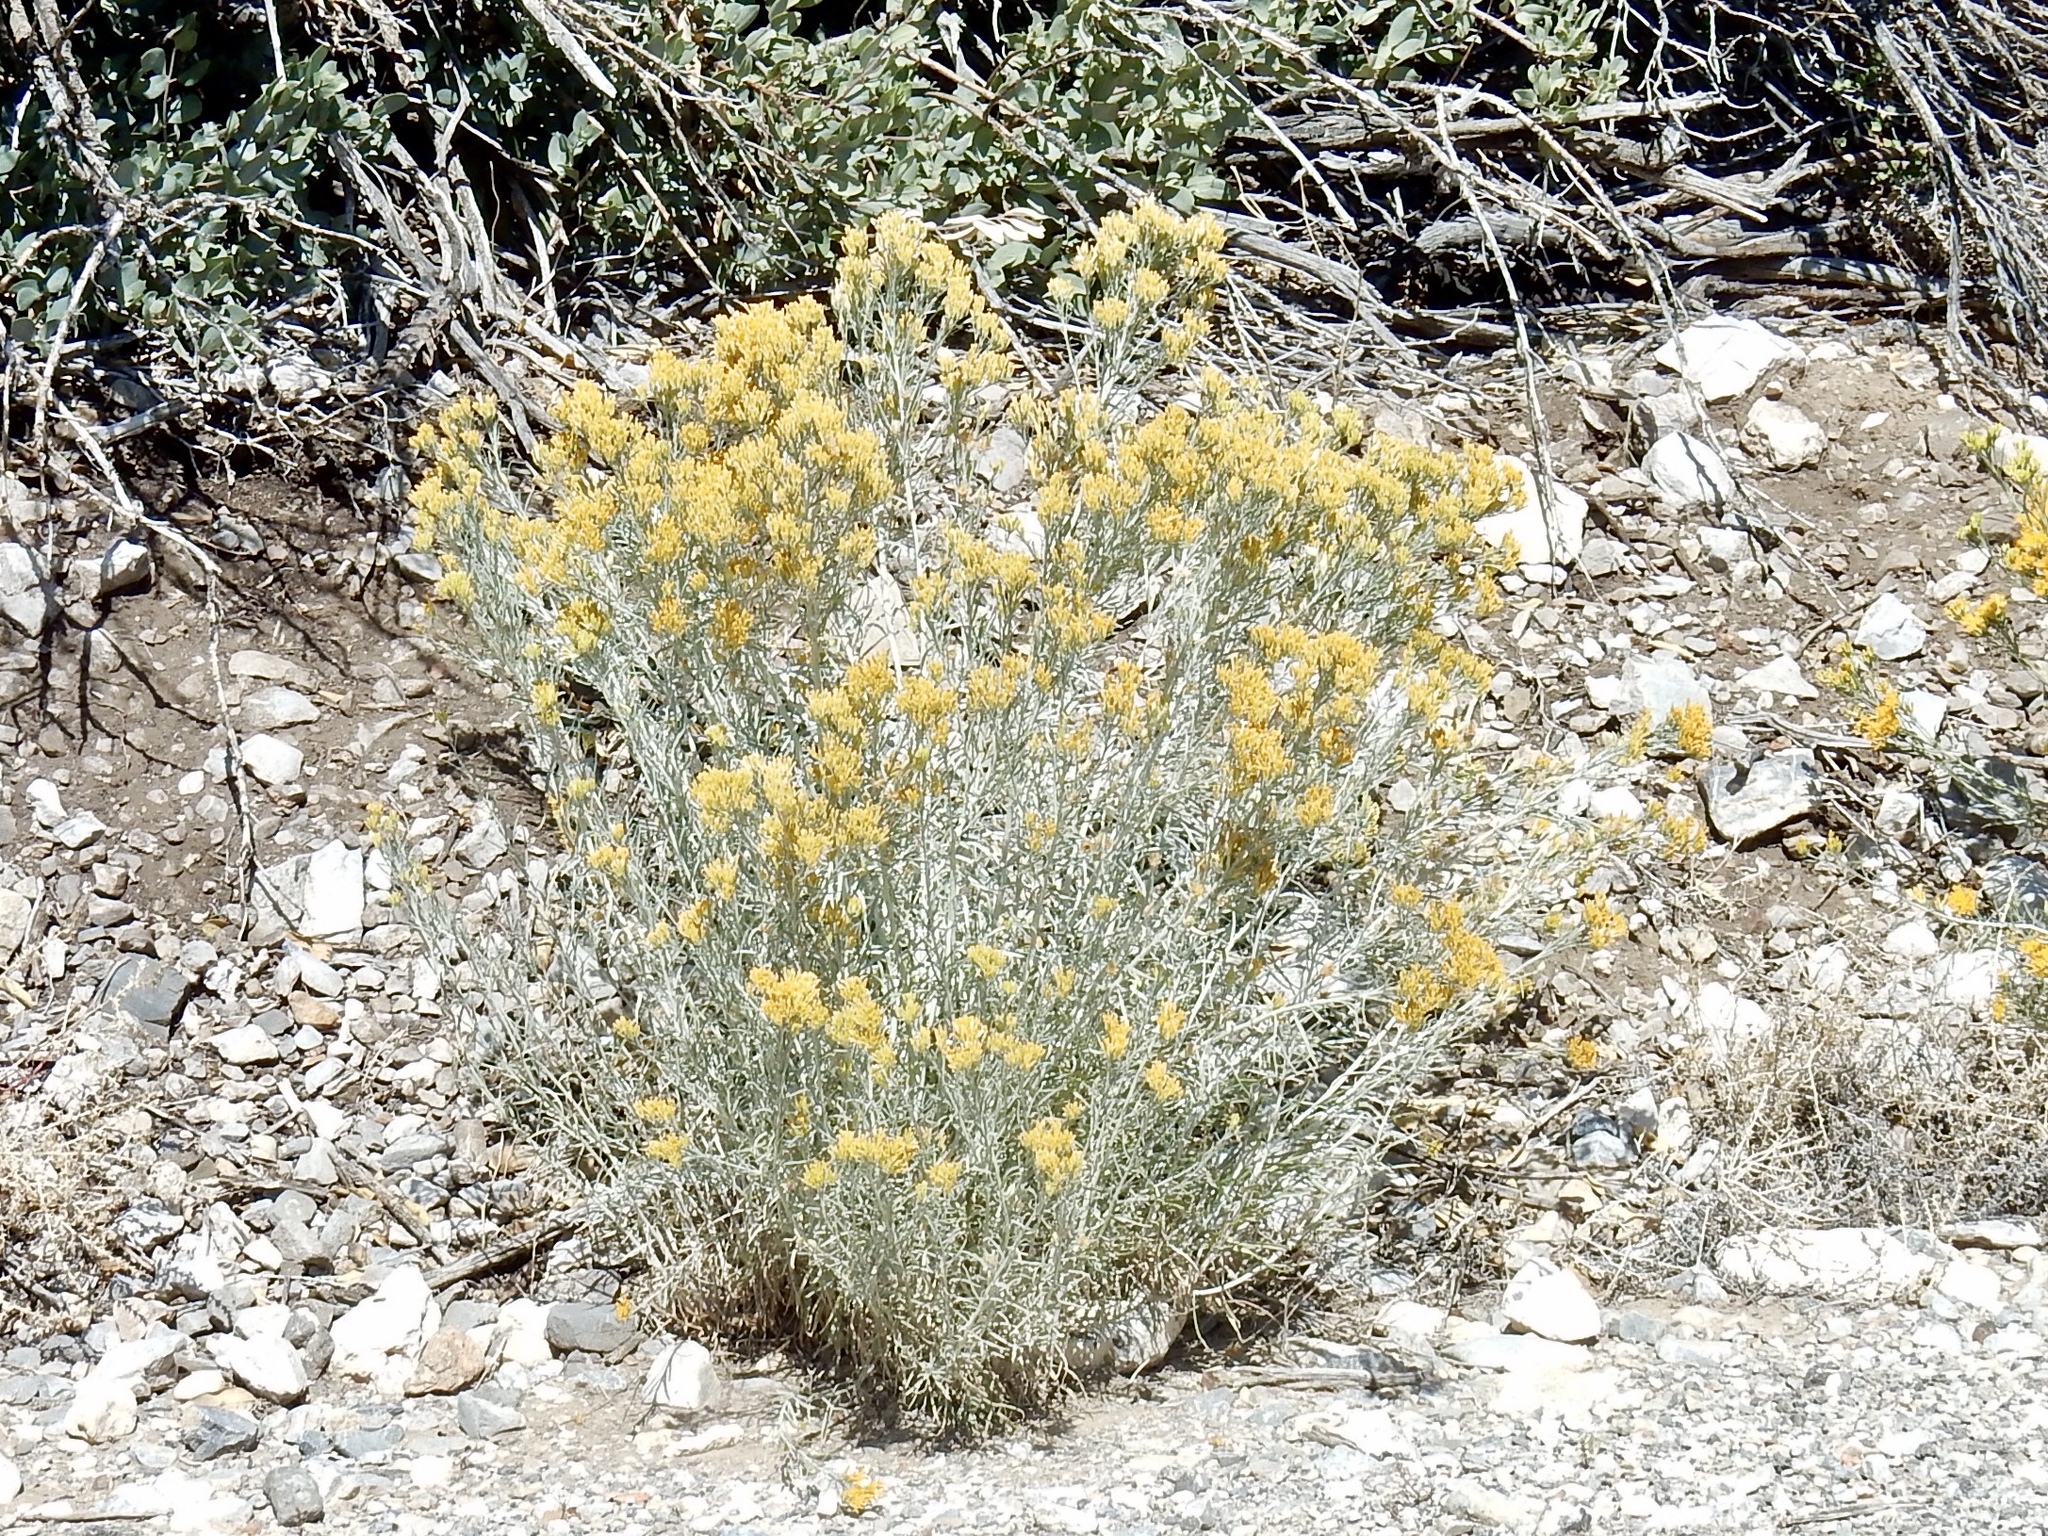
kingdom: Plantae
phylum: Tracheophyta
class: Magnoliopsida
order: Asterales
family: Asteraceae
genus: Ericameria
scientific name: Ericameria nauseosa
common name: Rubber rabbitbrush
